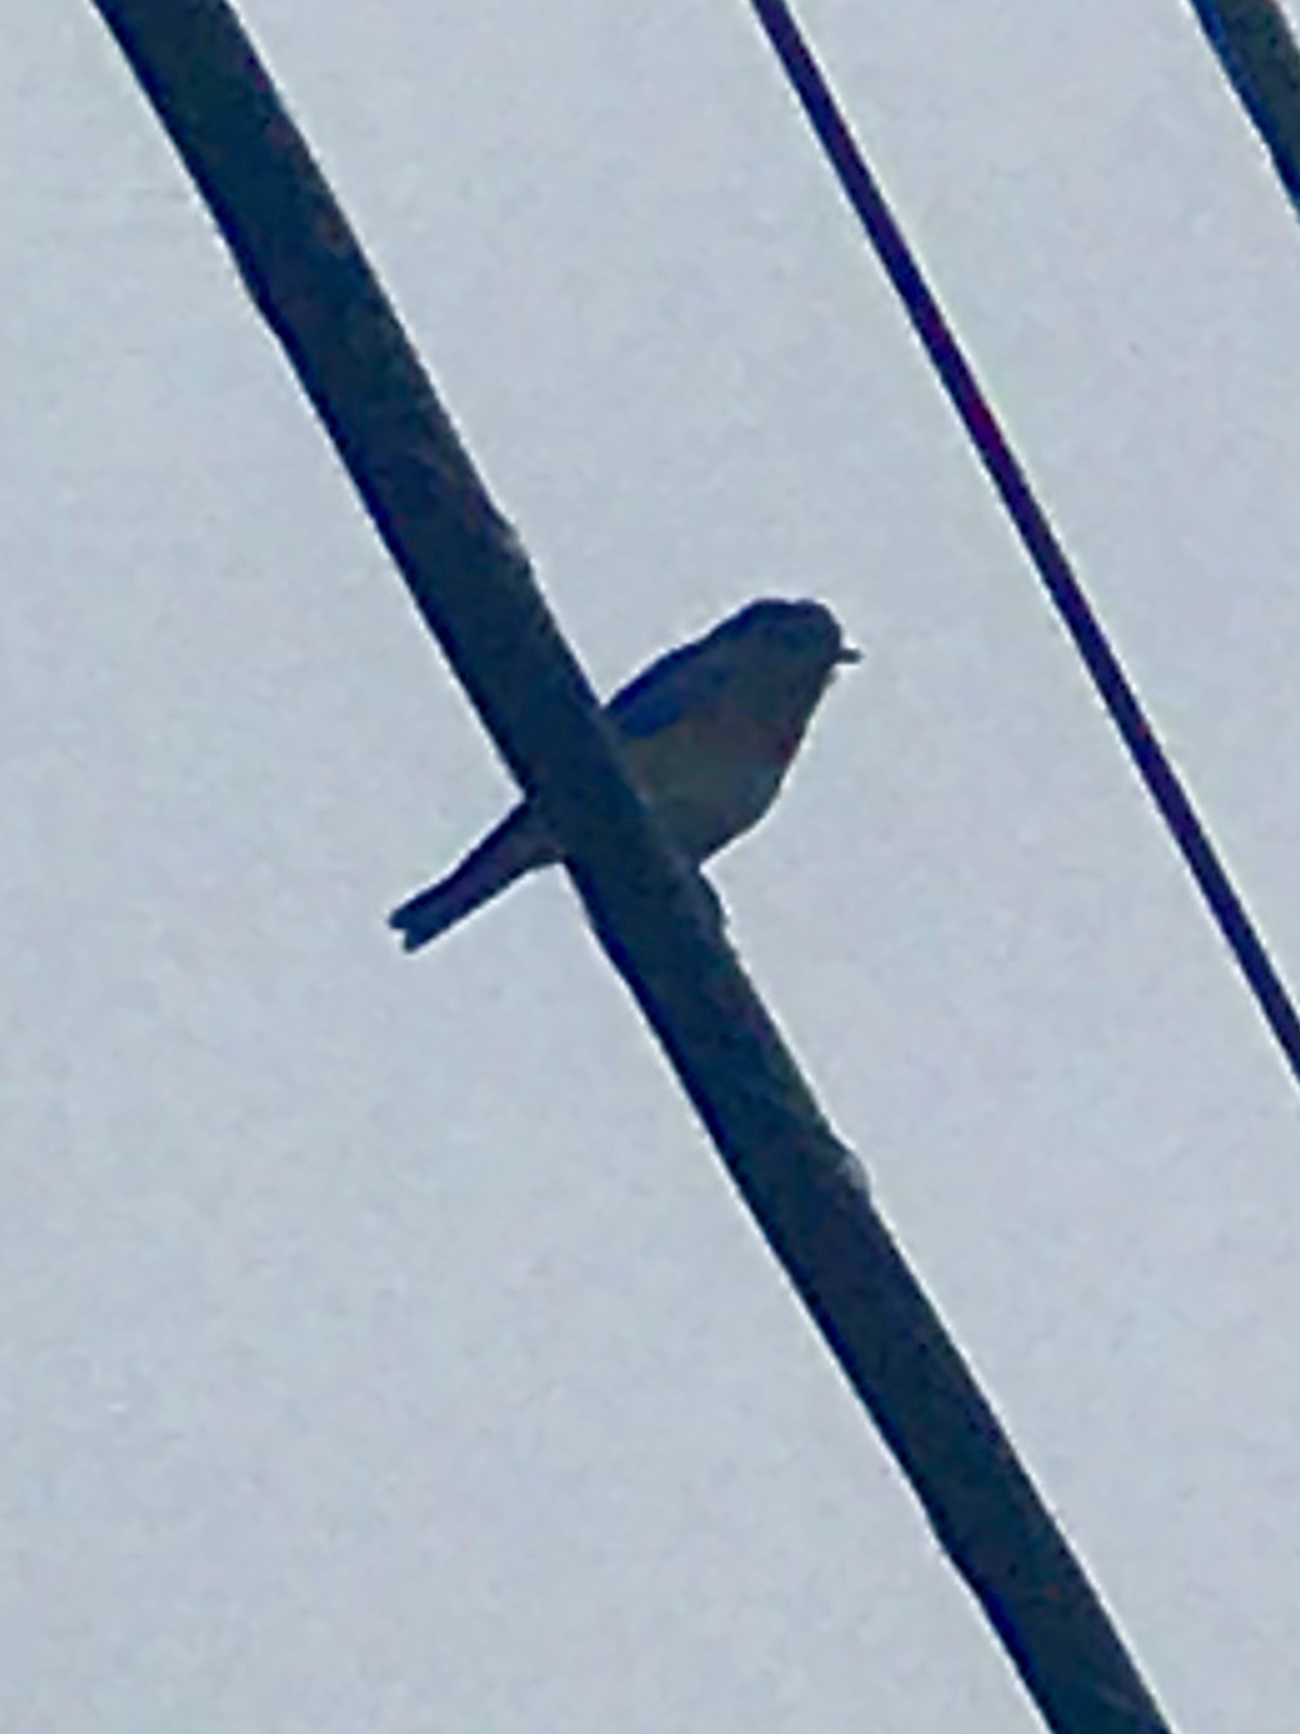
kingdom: Animalia
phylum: Chordata
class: Aves
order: Passeriformes
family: Turdidae
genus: Sialia
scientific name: Sialia sialis
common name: Eastern bluebird
